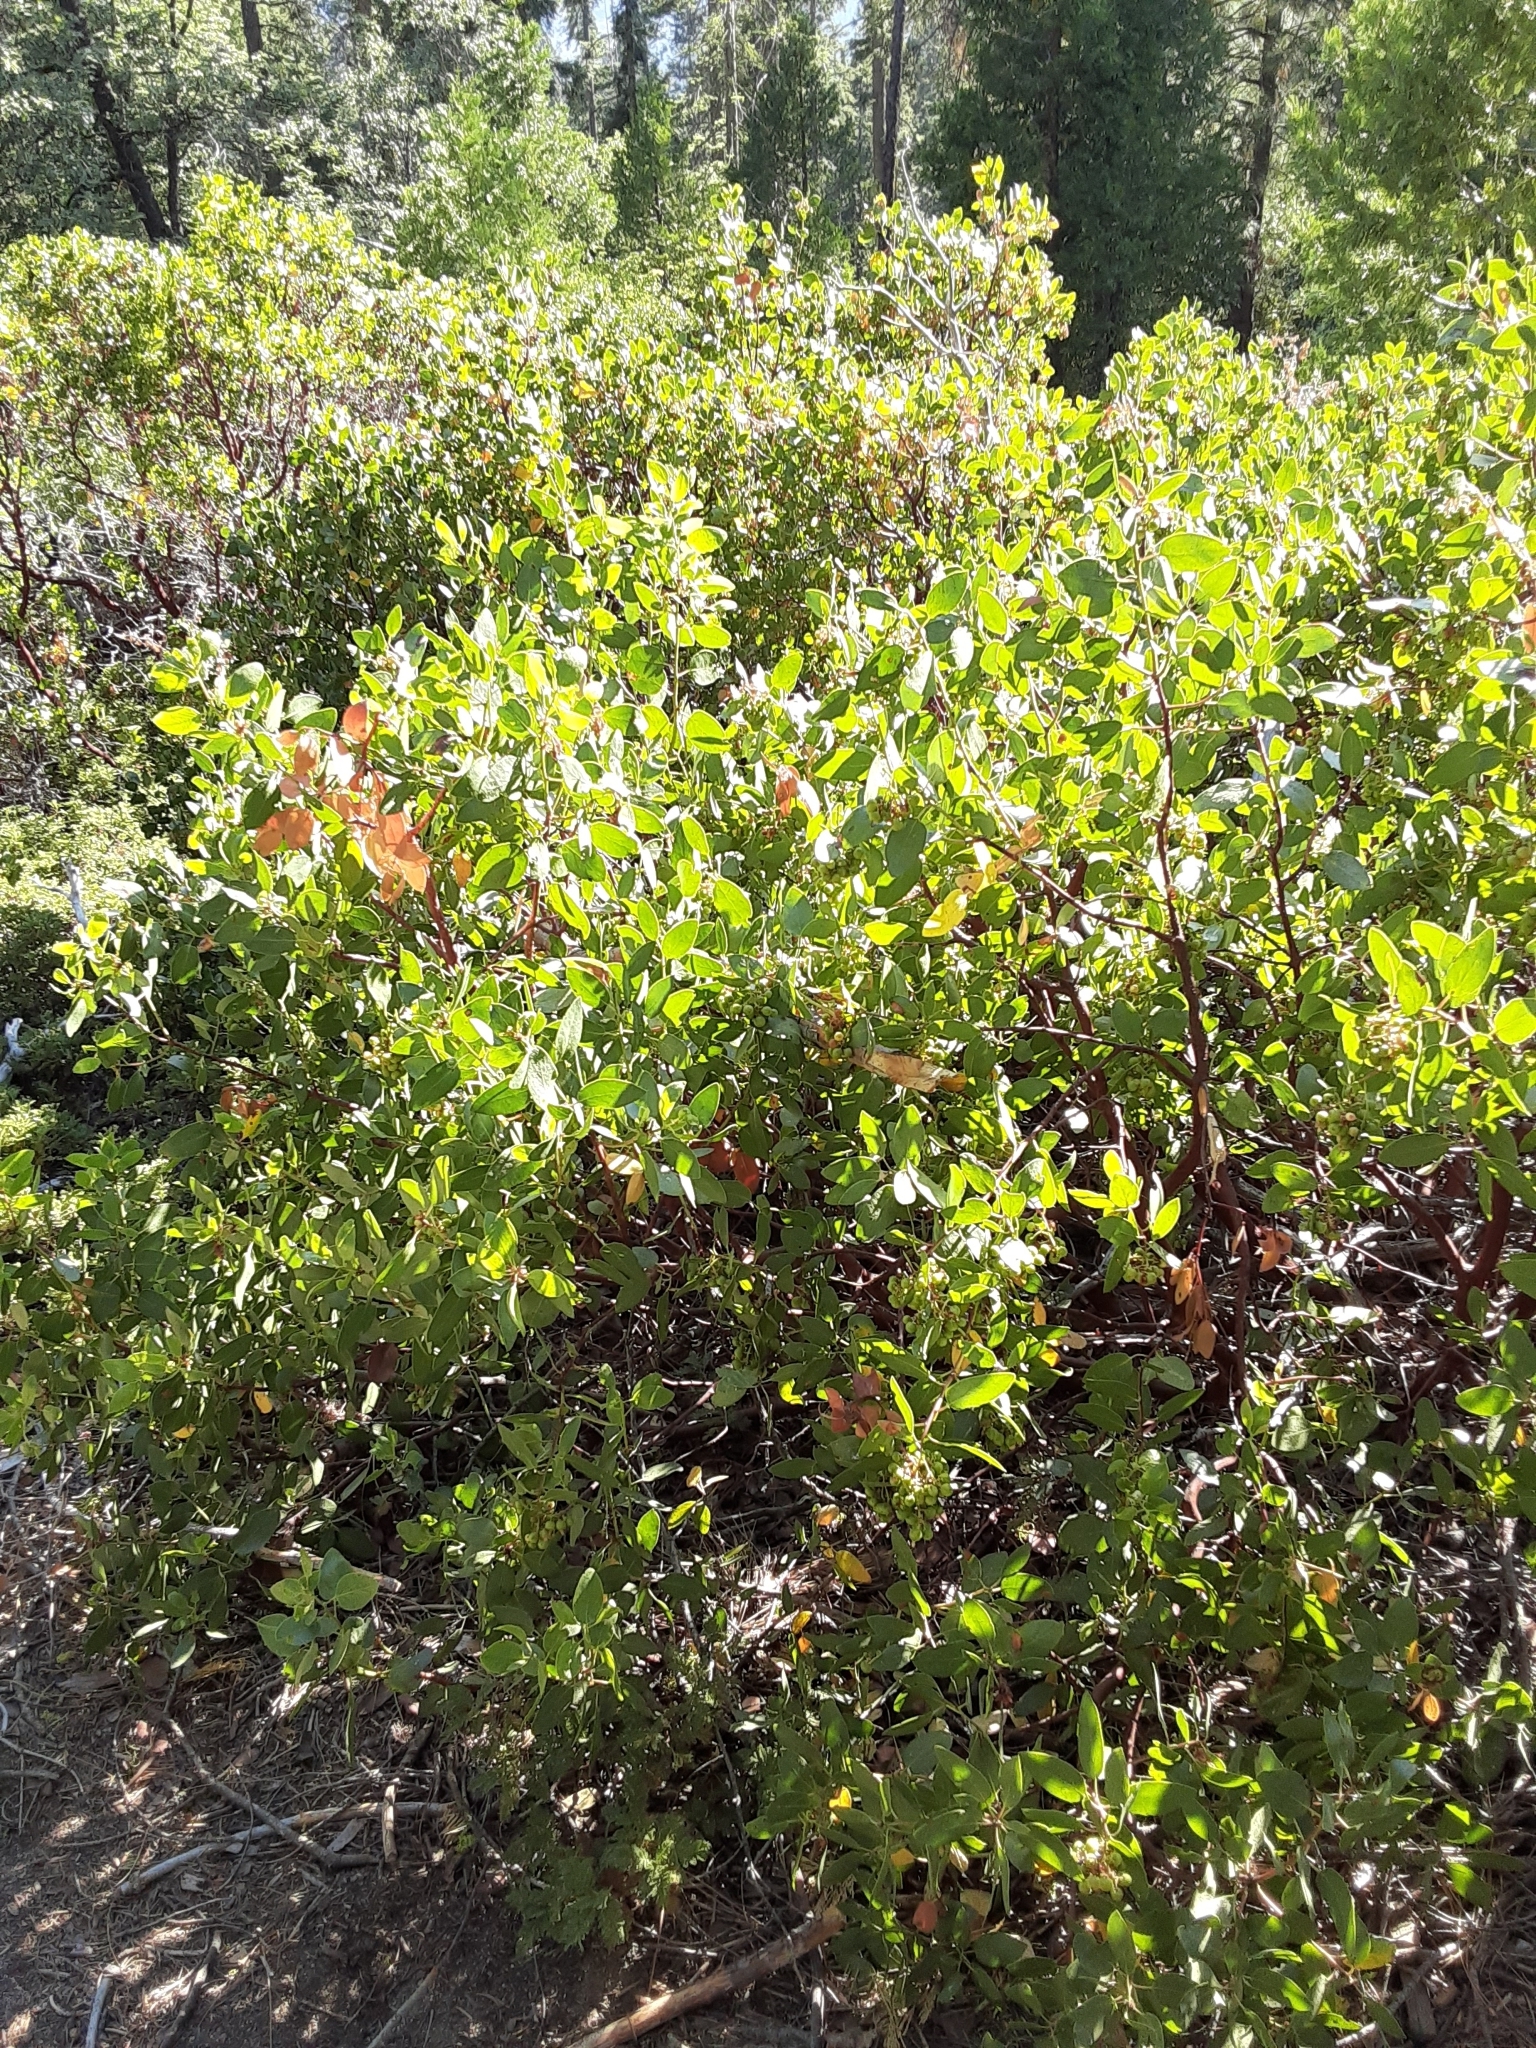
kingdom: Plantae
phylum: Tracheophyta
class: Magnoliopsida
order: Ericales
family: Ericaceae
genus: Arctostaphylos
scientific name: Arctostaphylos patula
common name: Green-leaf manzanita
